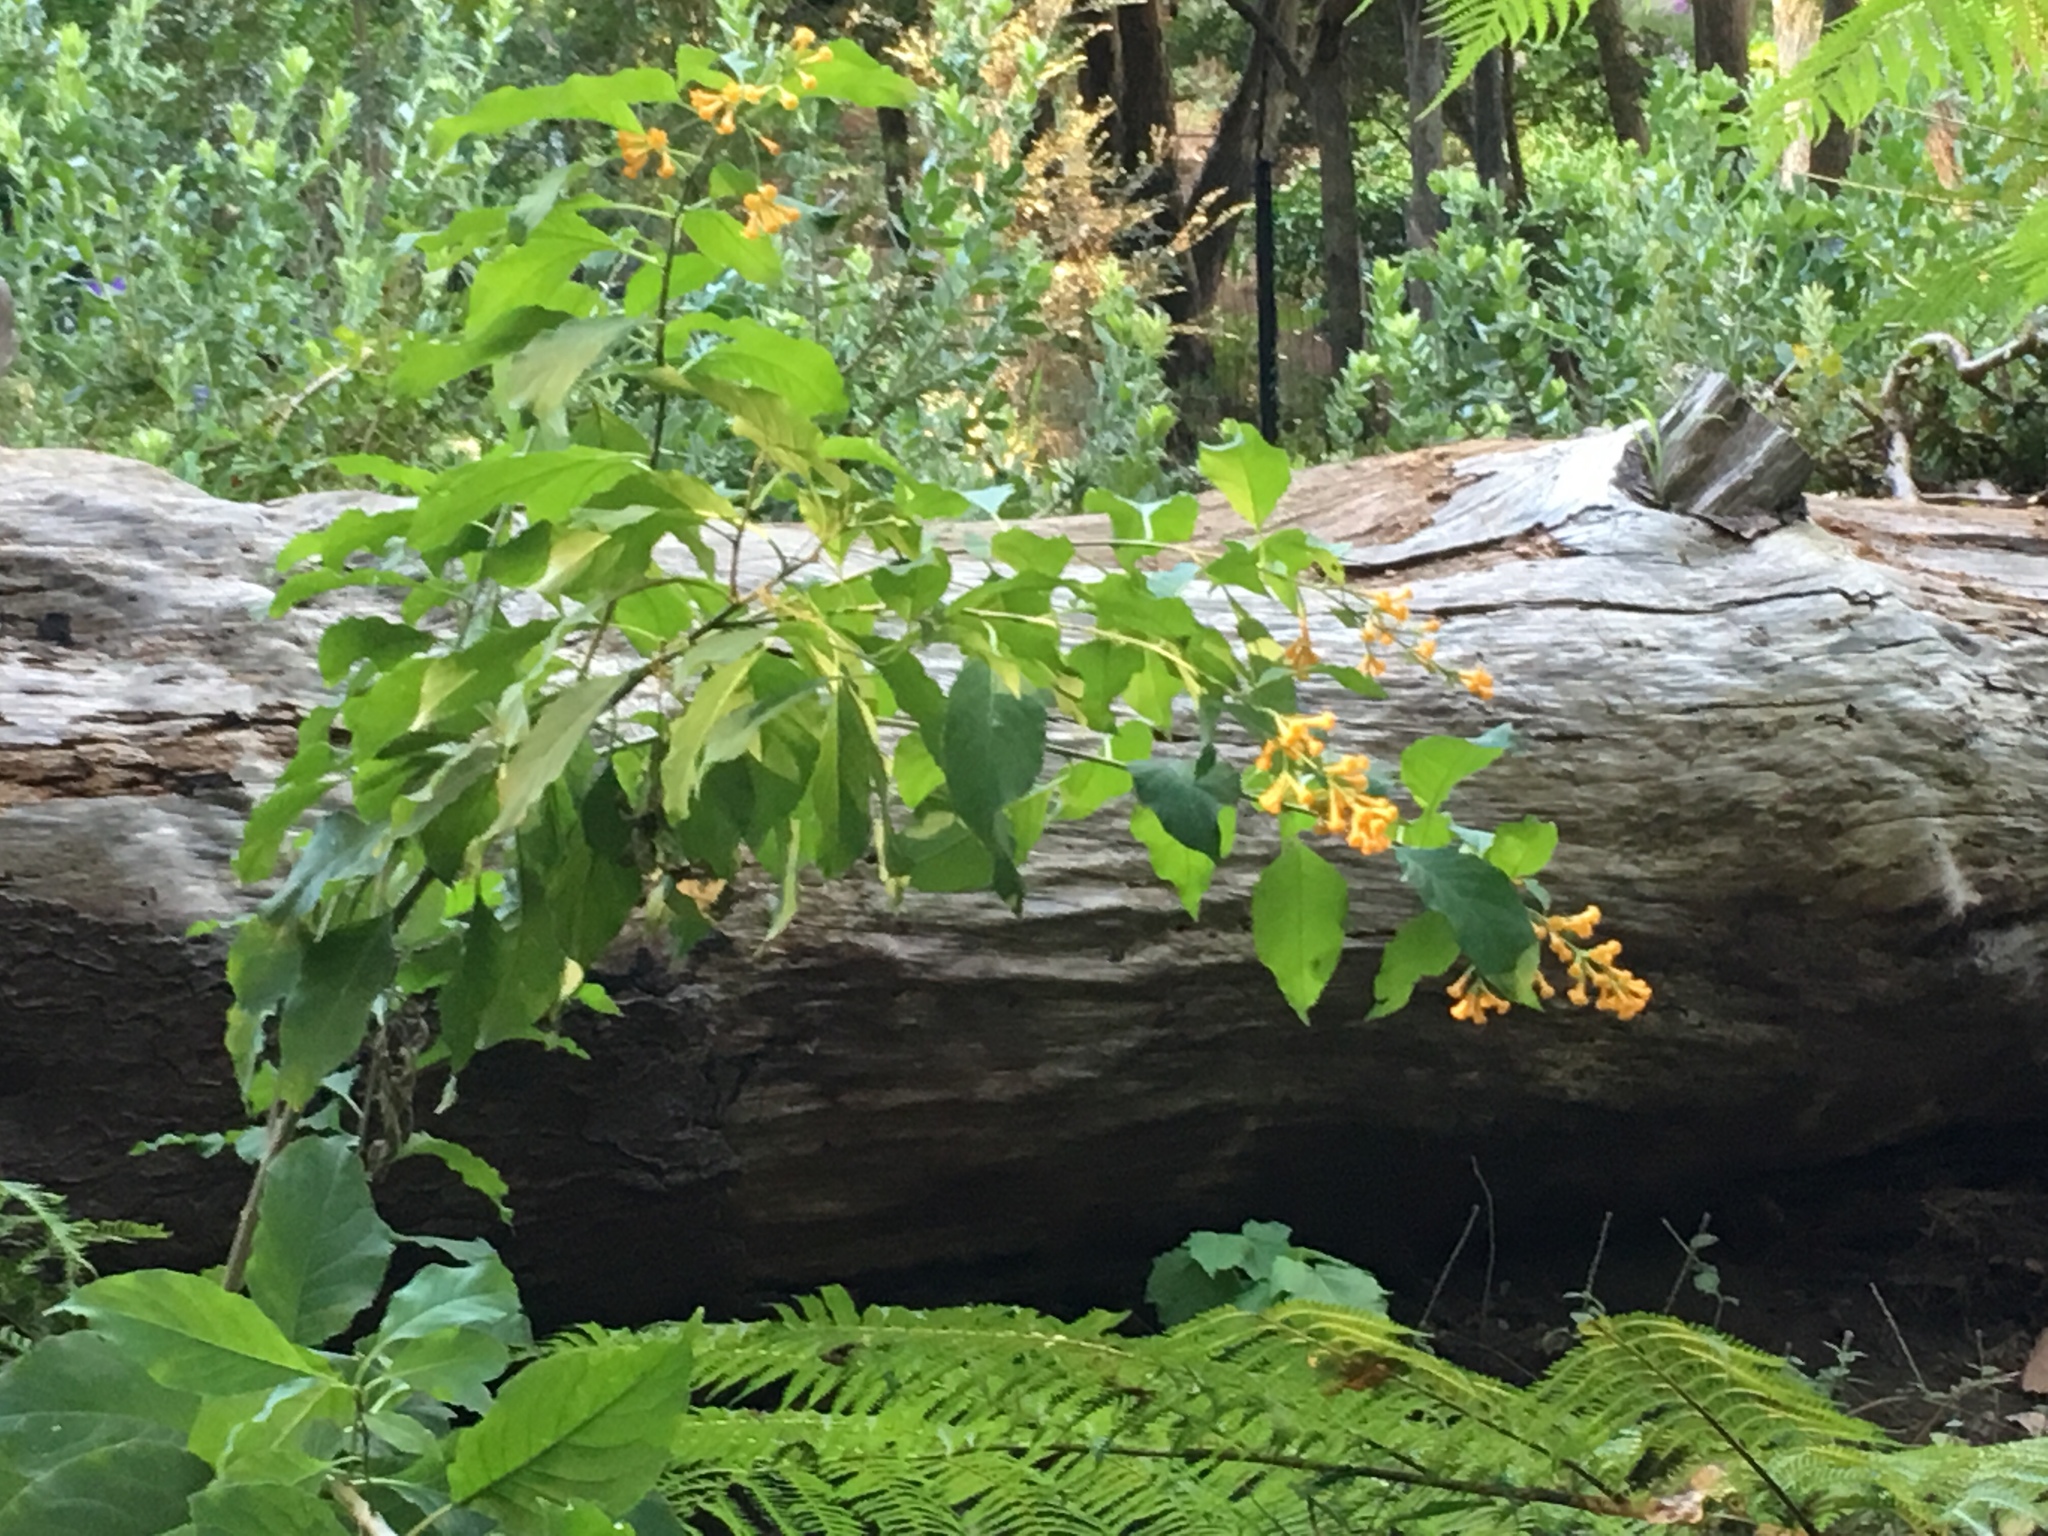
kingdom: Plantae
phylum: Tracheophyta
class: Magnoliopsida
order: Solanales
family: Solanaceae
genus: Cestrum
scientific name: Cestrum aurantiacum
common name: Orange cestrum
